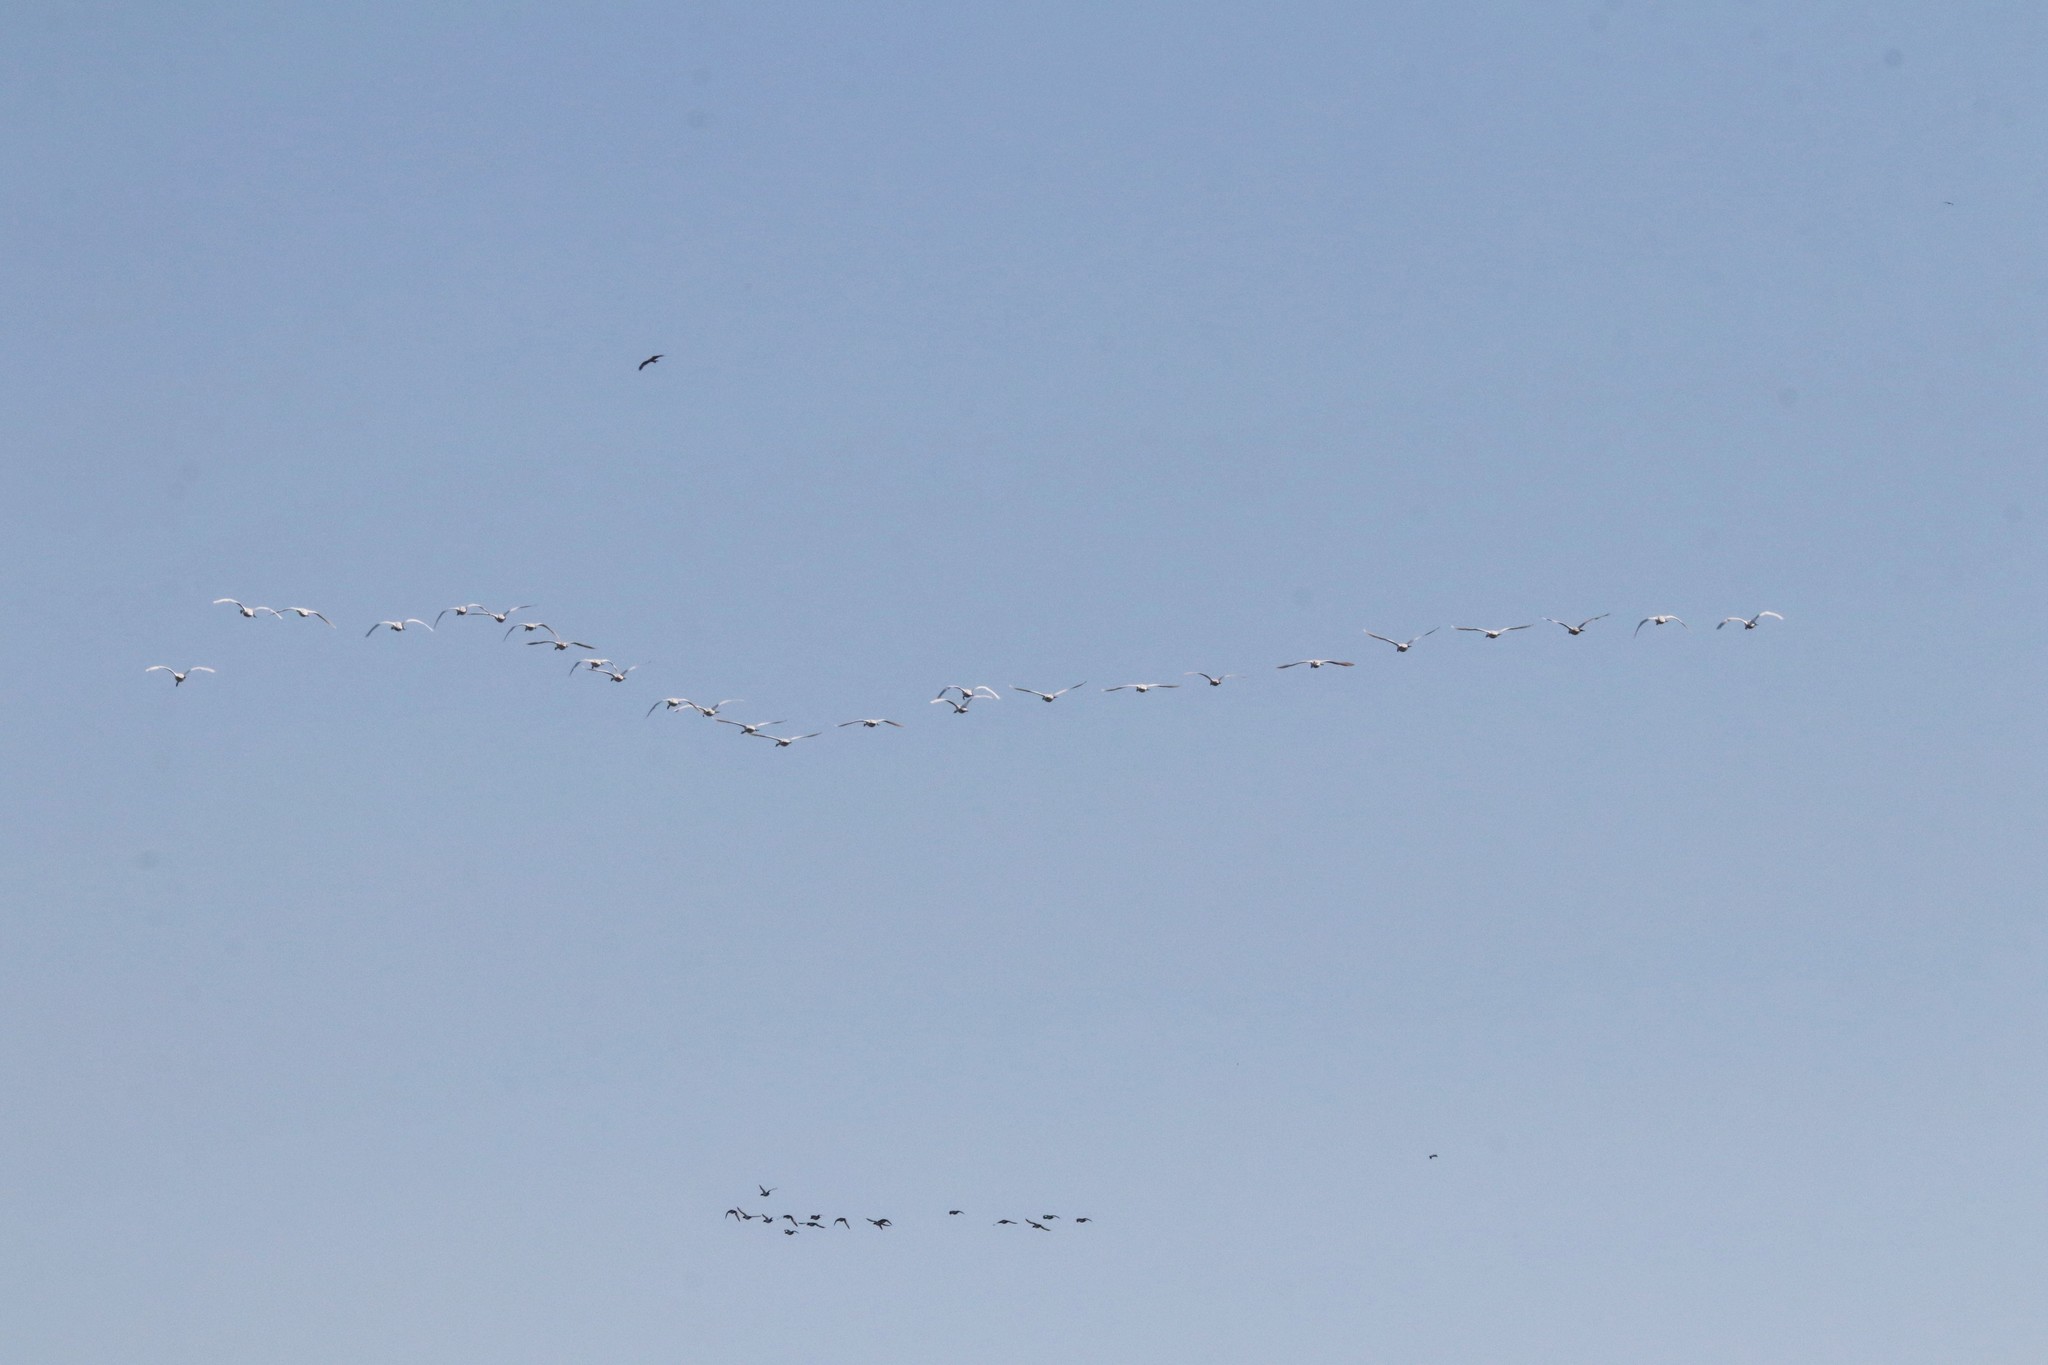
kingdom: Animalia
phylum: Chordata
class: Aves
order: Anseriformes
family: Anatidae
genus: Cygnus
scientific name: Cygnus olor
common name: Mute swan
